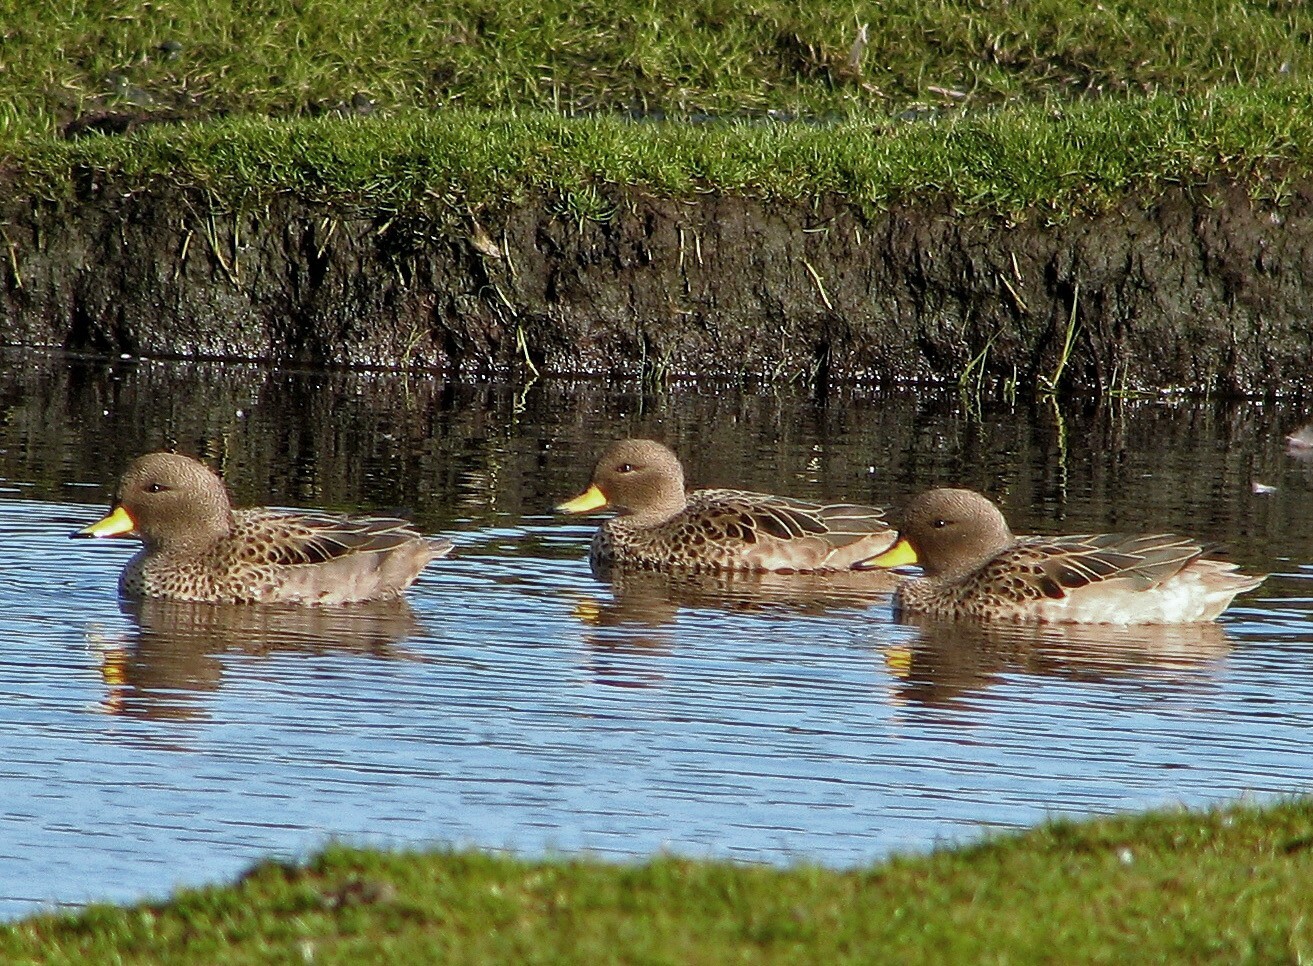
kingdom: Animalia
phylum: Chordata
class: Aves
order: Anseriformes
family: Anatidae
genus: Anas
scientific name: Anas flavirostris
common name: Yellow-billed teal
